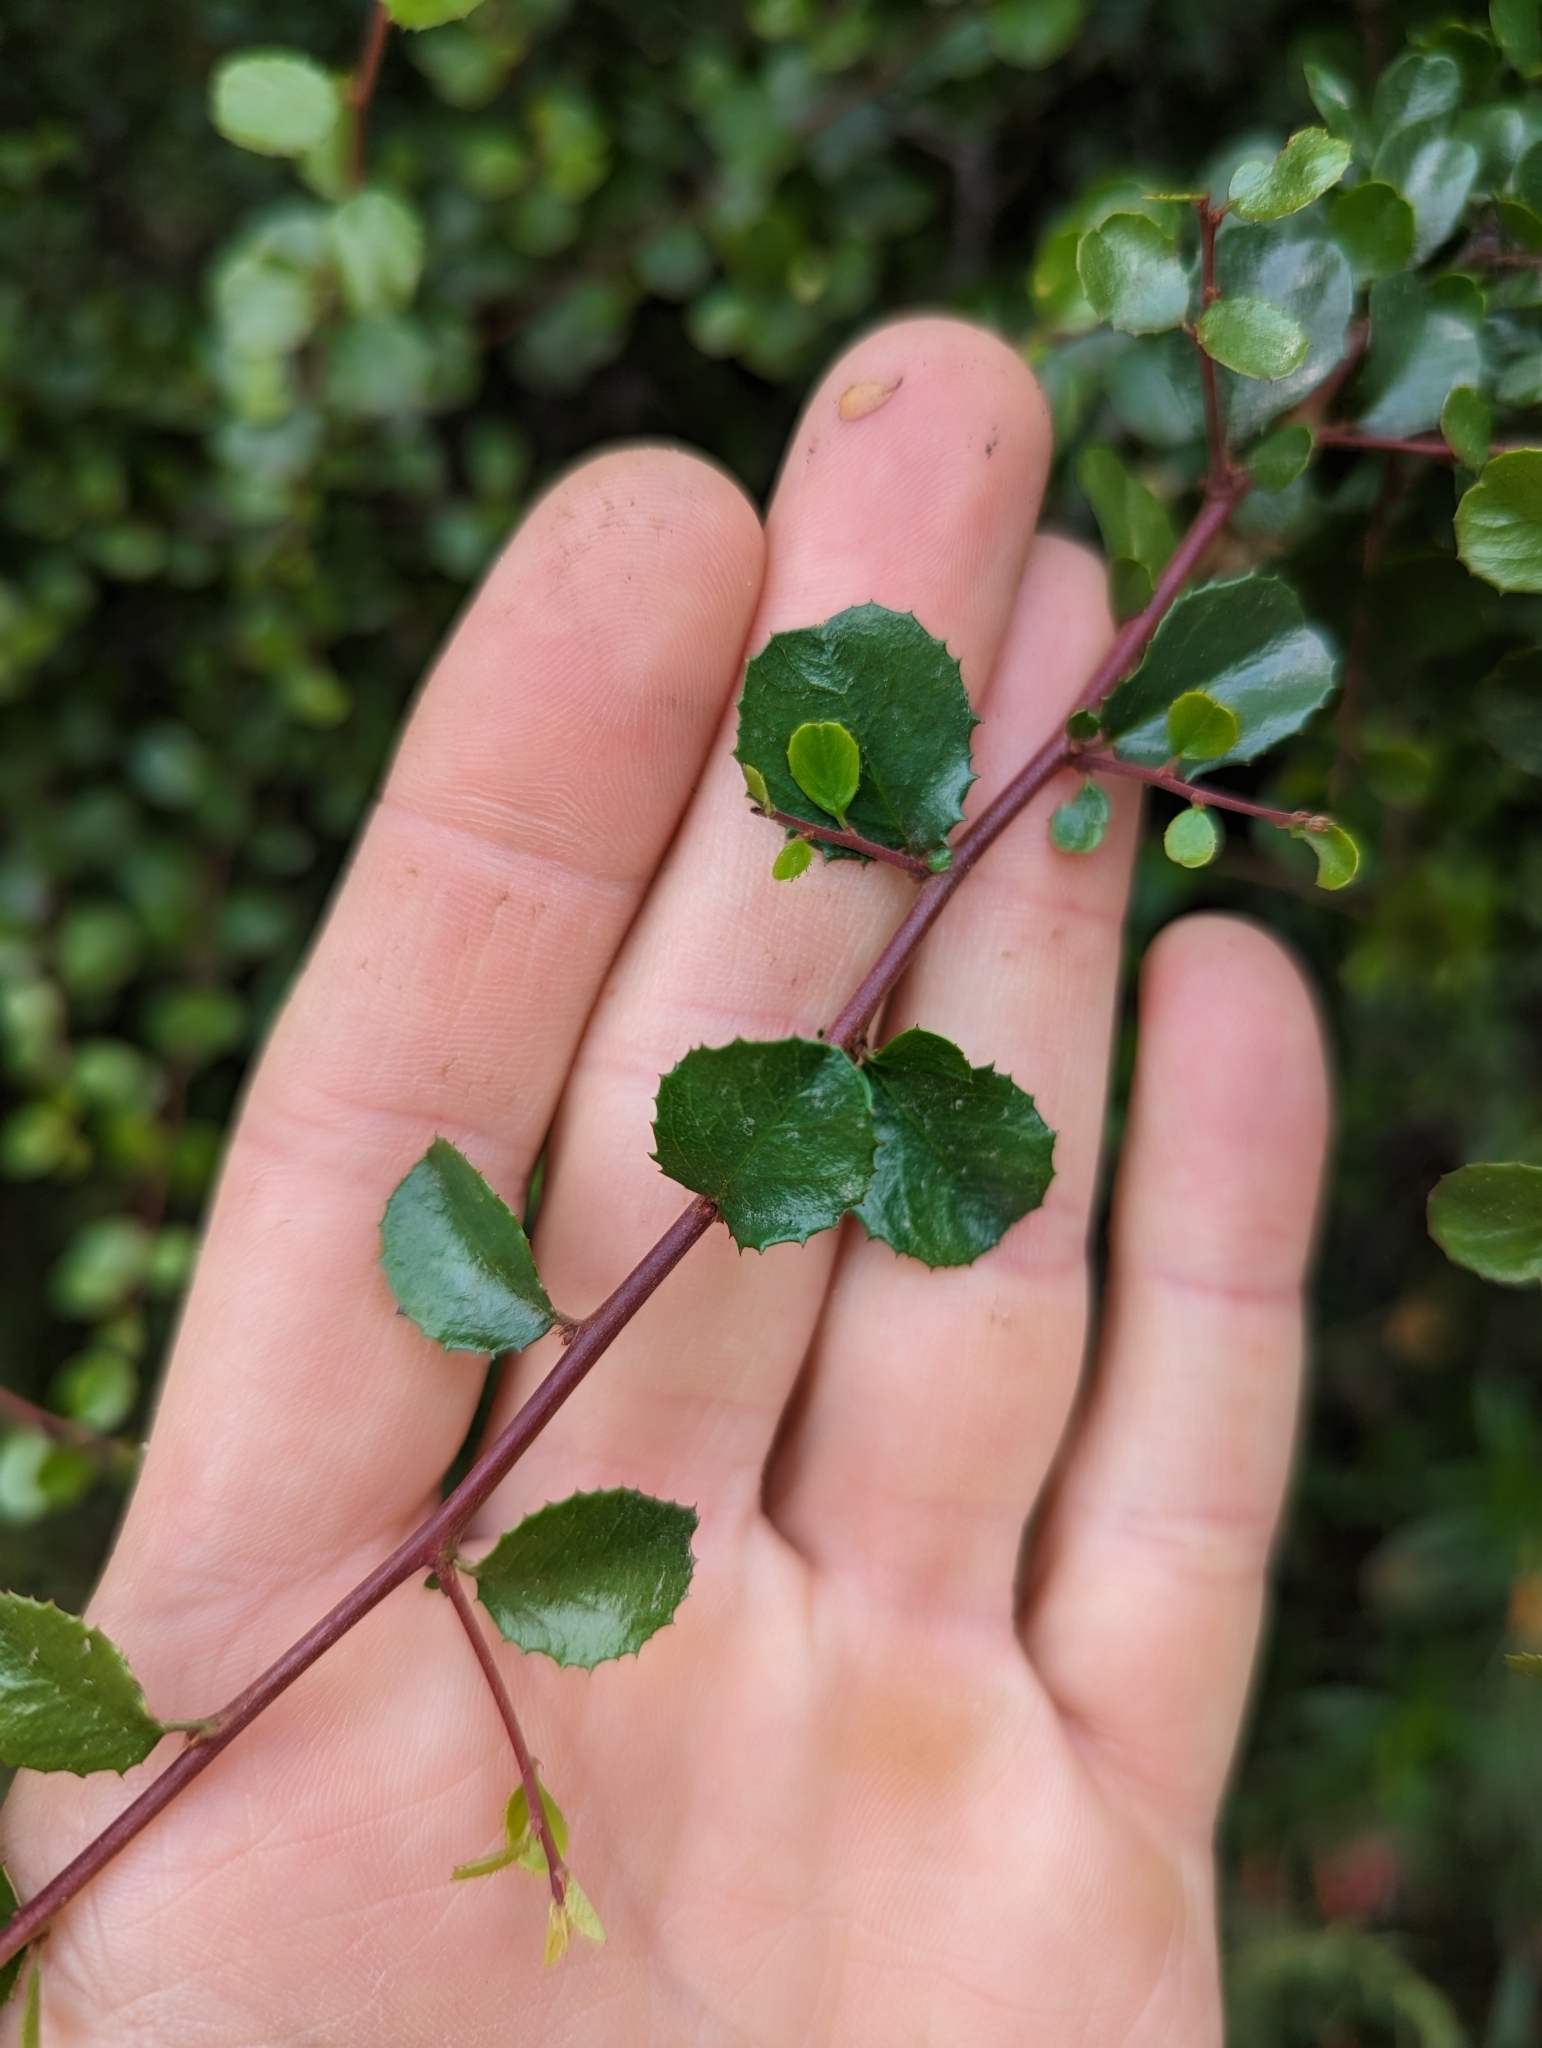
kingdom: Plantae
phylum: Tracheophyta
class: Magnoliopsida
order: Rosales
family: Rhamnaceae
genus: Endotropis
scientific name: Endotropis crocea
